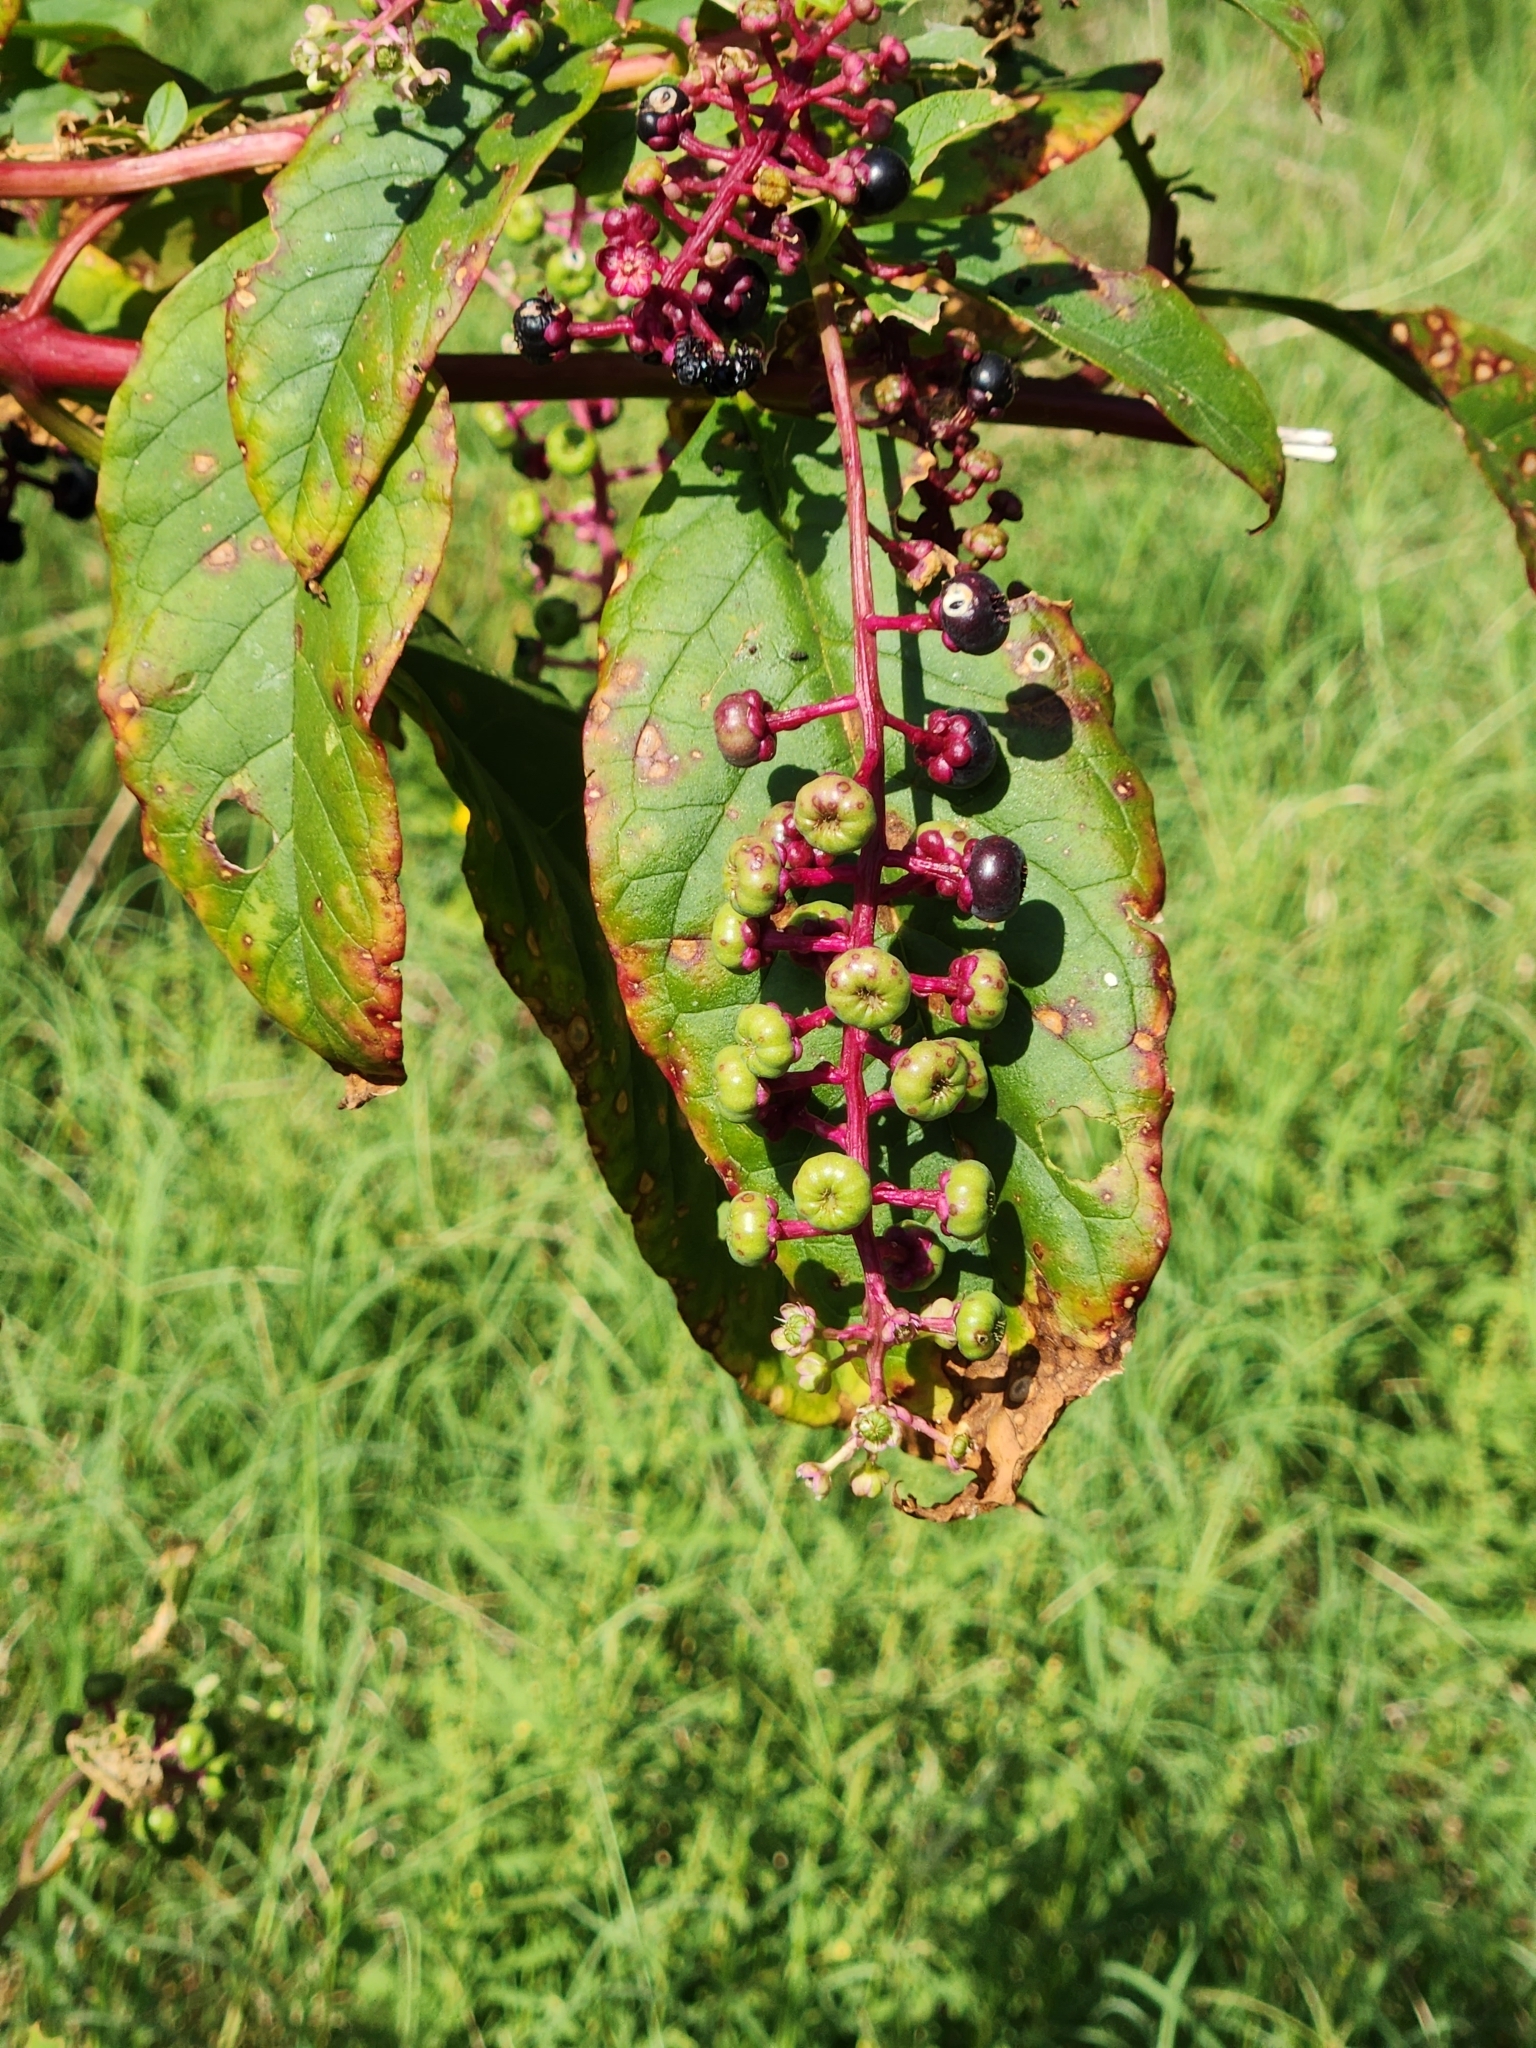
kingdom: Plantae
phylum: Tracheophyta
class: Magnoliopsida
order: Caryophyllales
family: Phytolaccaceae
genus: Phytolacca
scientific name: Phytolacca americana
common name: American pokeweed
